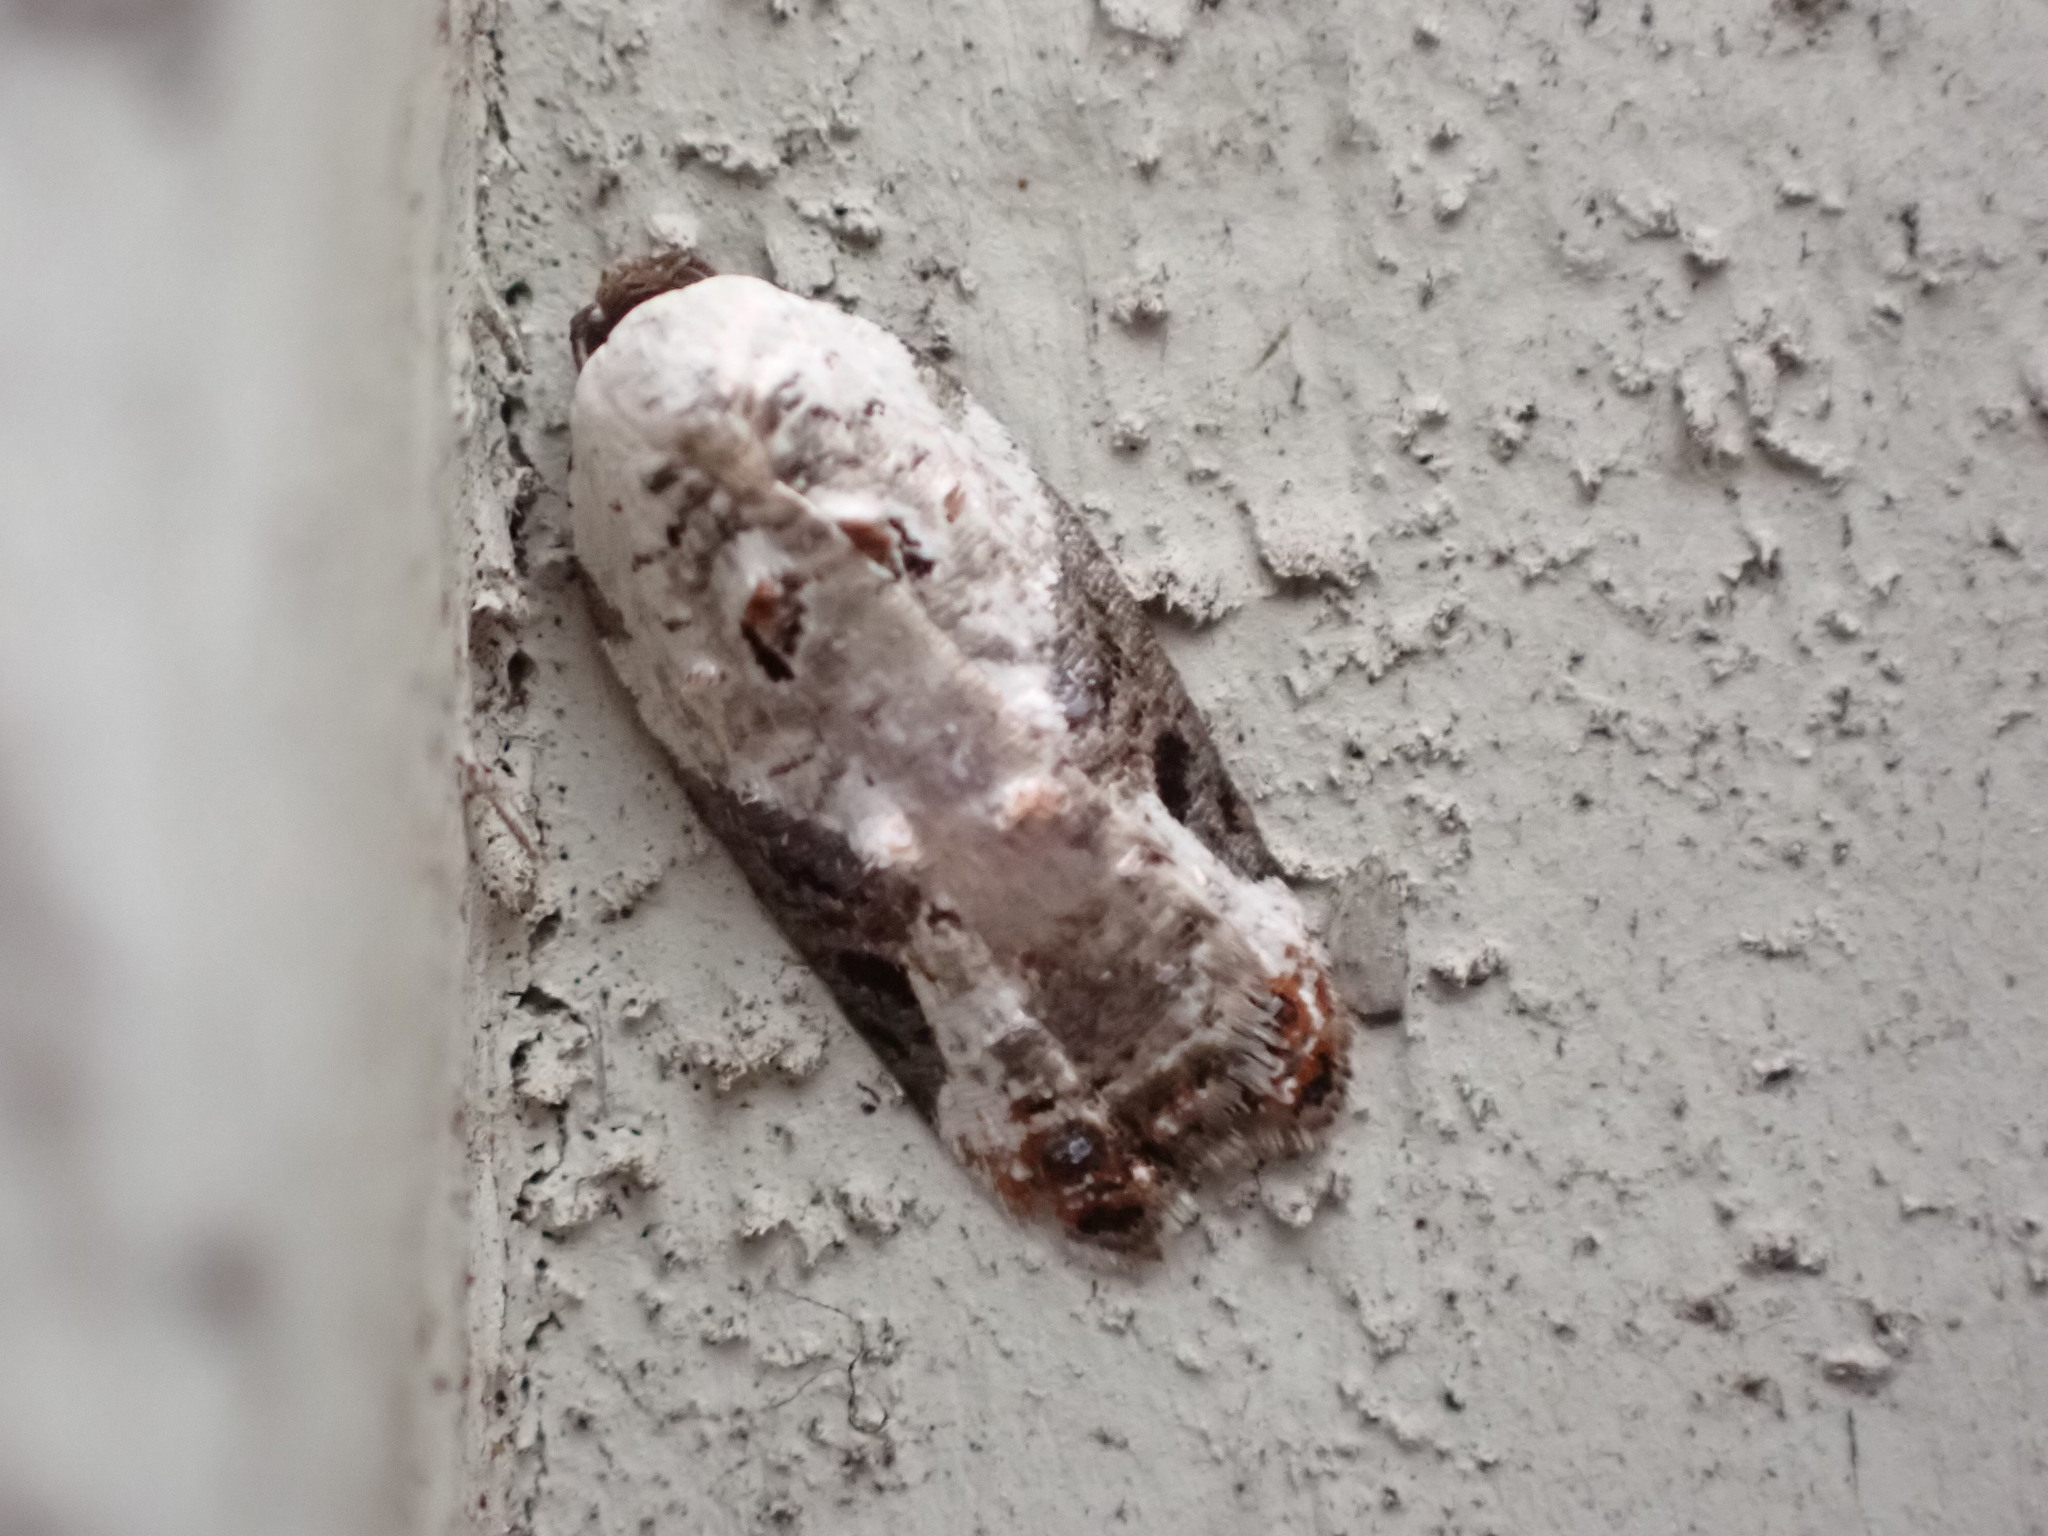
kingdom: Animalia
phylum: Arthropoda
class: Insecta
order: Lepidoptera
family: Tortricidae
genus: Acleris
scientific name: Acleris nivisellana
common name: Snowy-shouldered acleris moth
